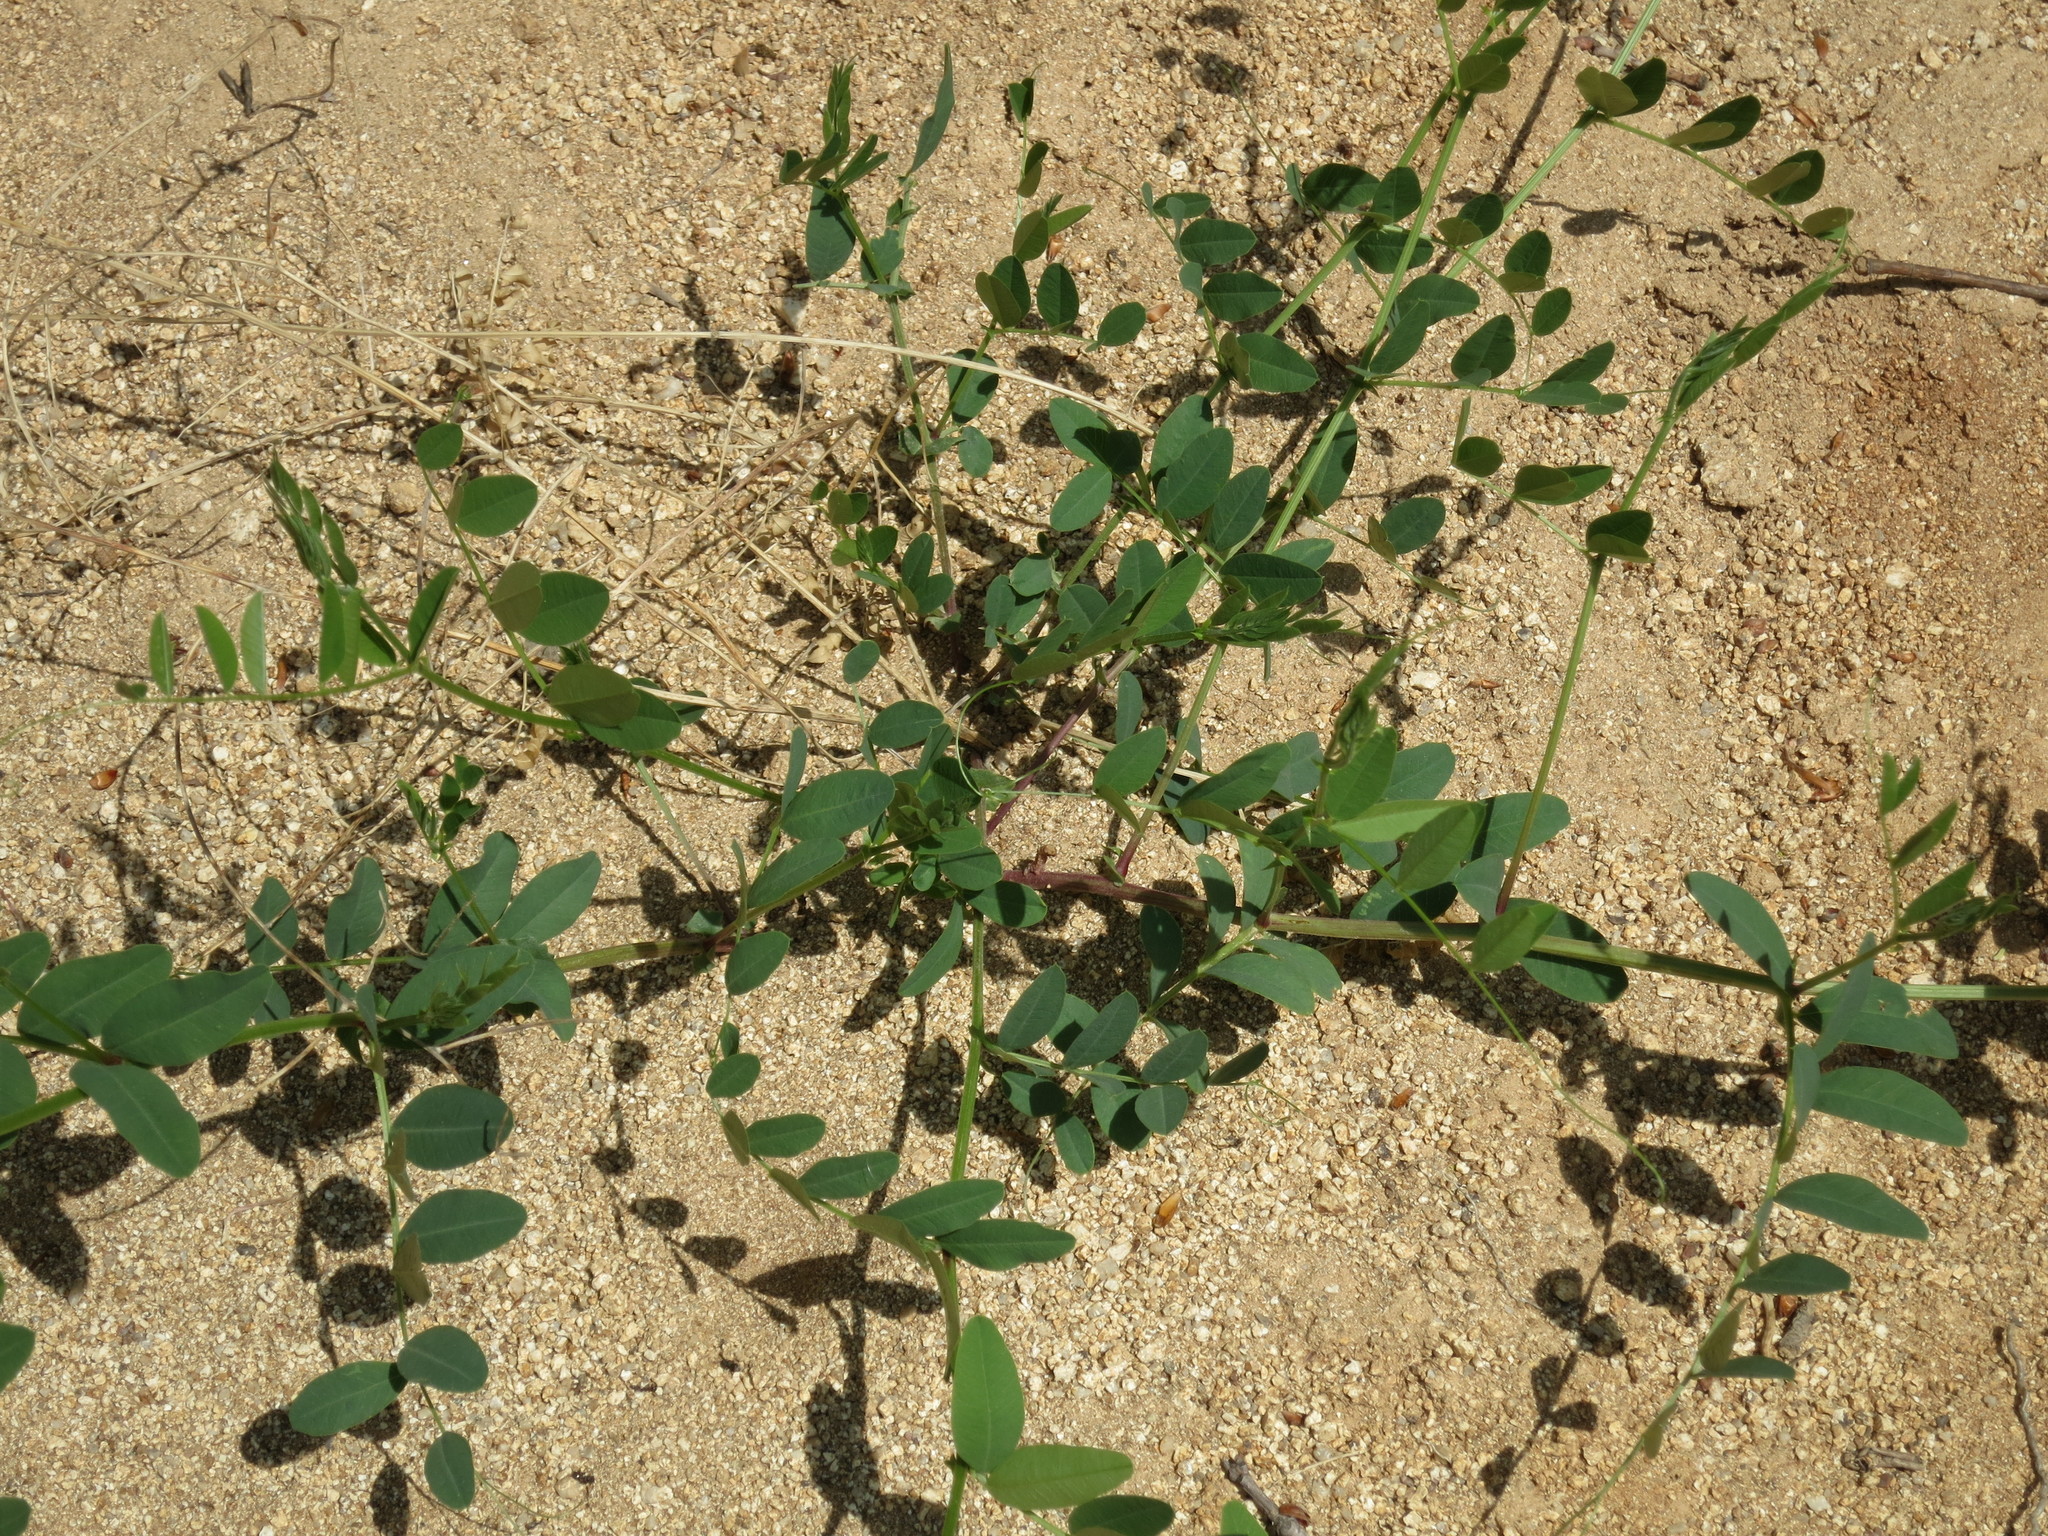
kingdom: Plantae
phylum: Tracheophyta
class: Magnoliopsida
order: Fabales
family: Fabaceae
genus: Vicia
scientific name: Vicia amurensis
